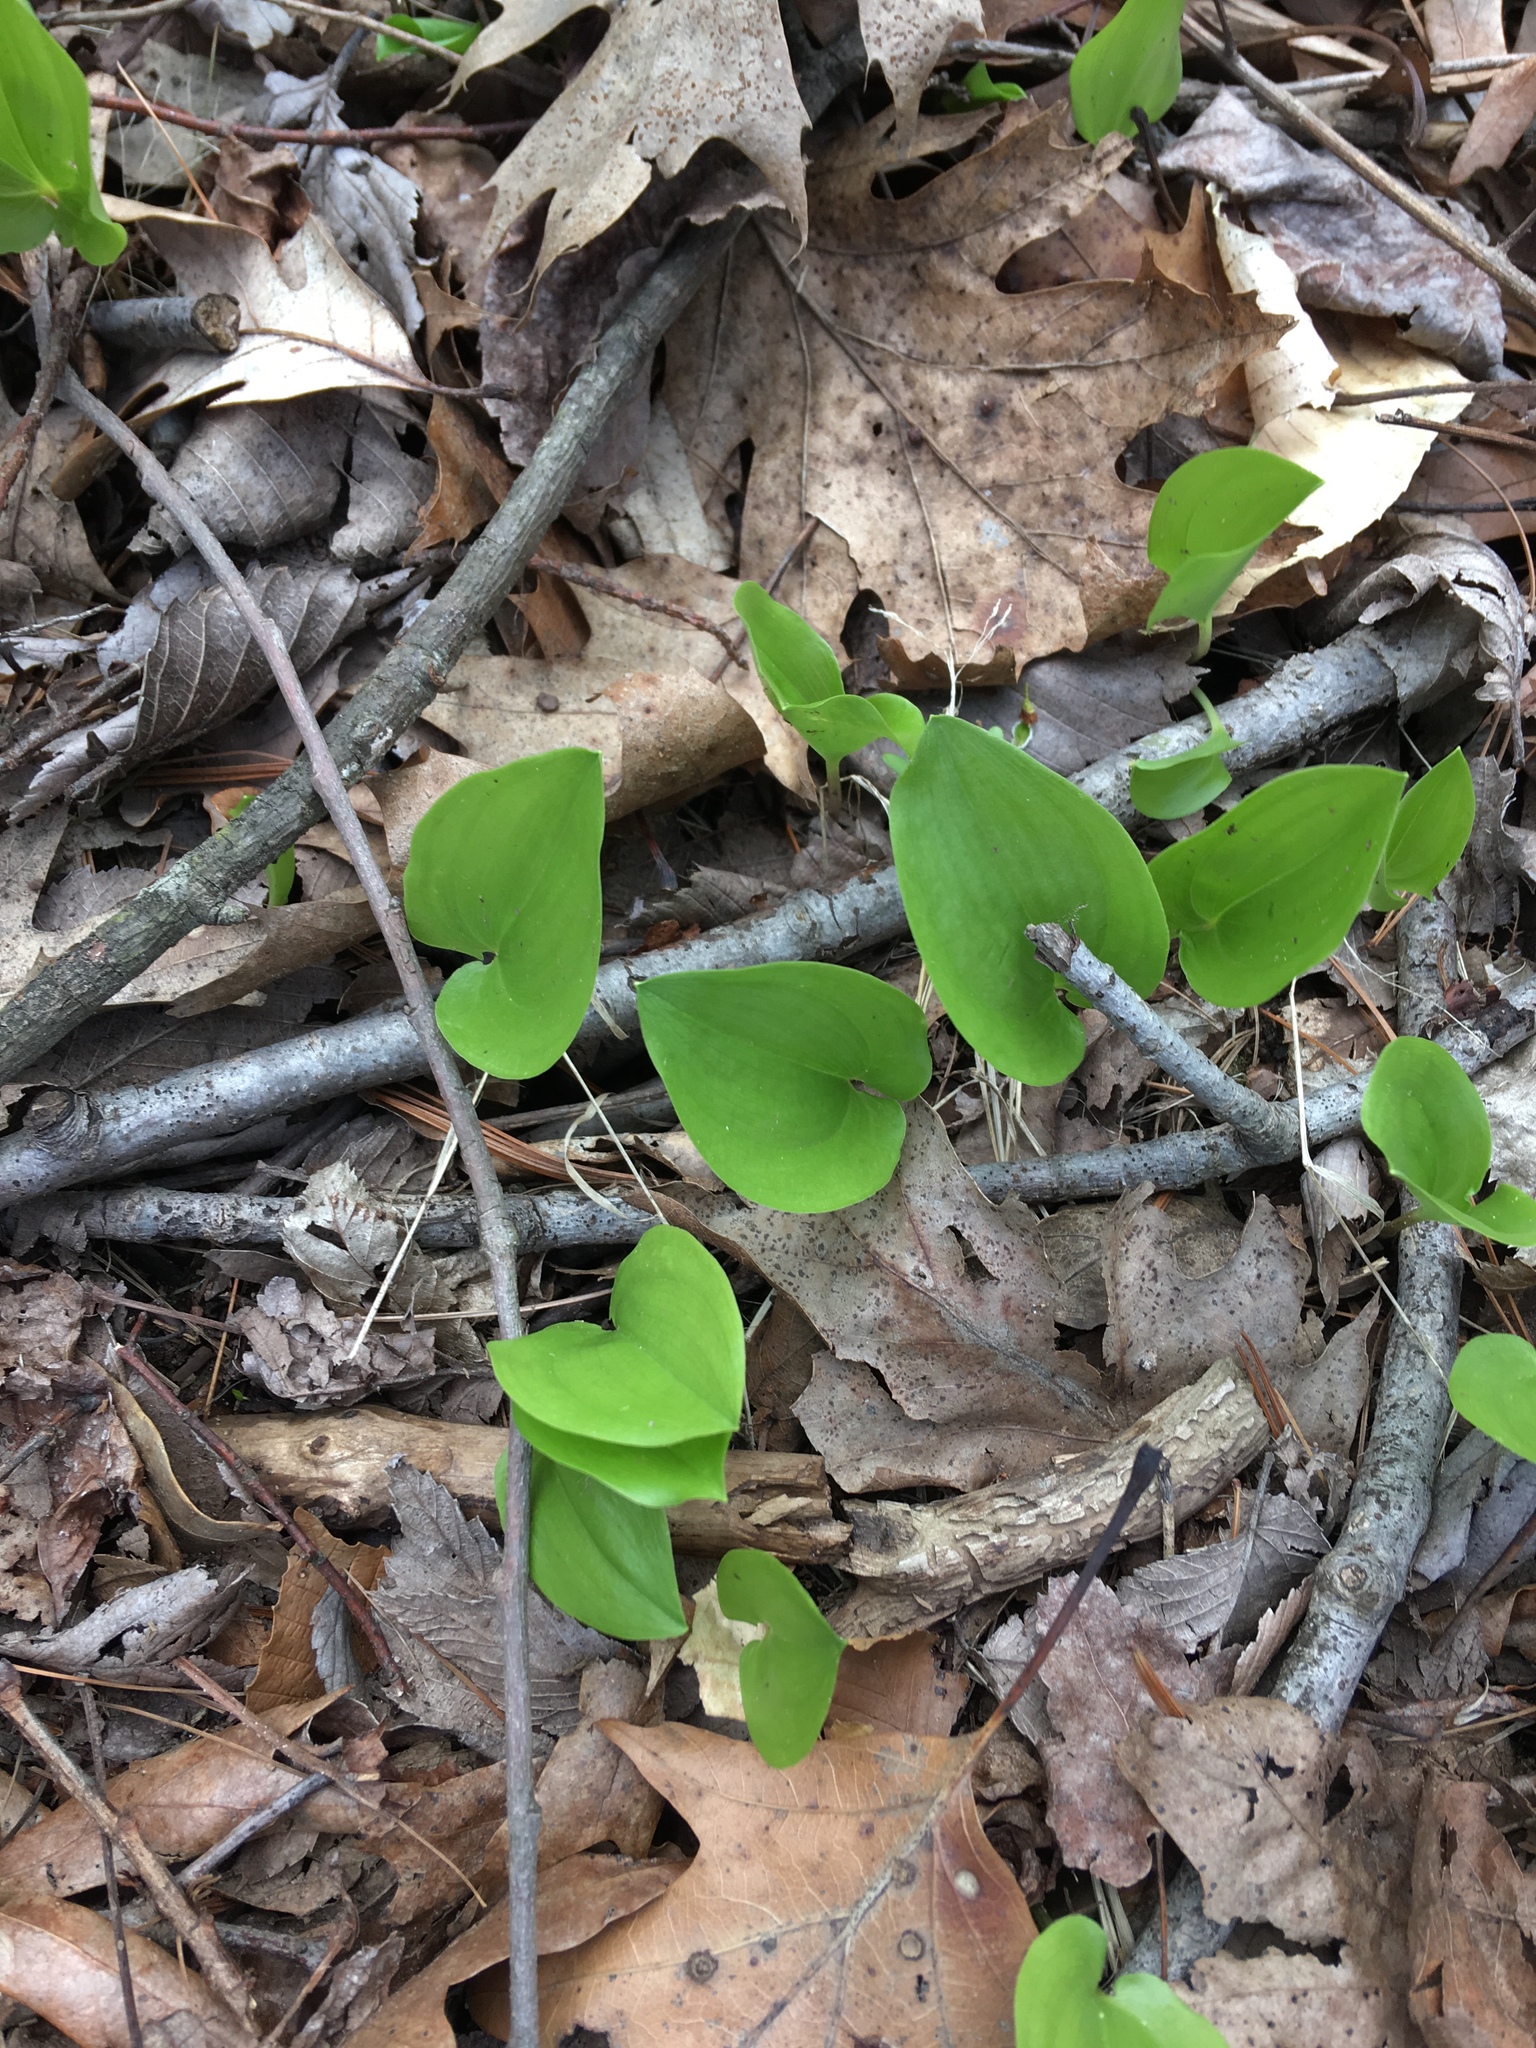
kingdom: Plantae
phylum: Tracheophyta
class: Liliopsida
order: Asparagales
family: Asparagaceae
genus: Maianthemum
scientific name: Maianthemum canadense
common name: False lily-of-the-valley
